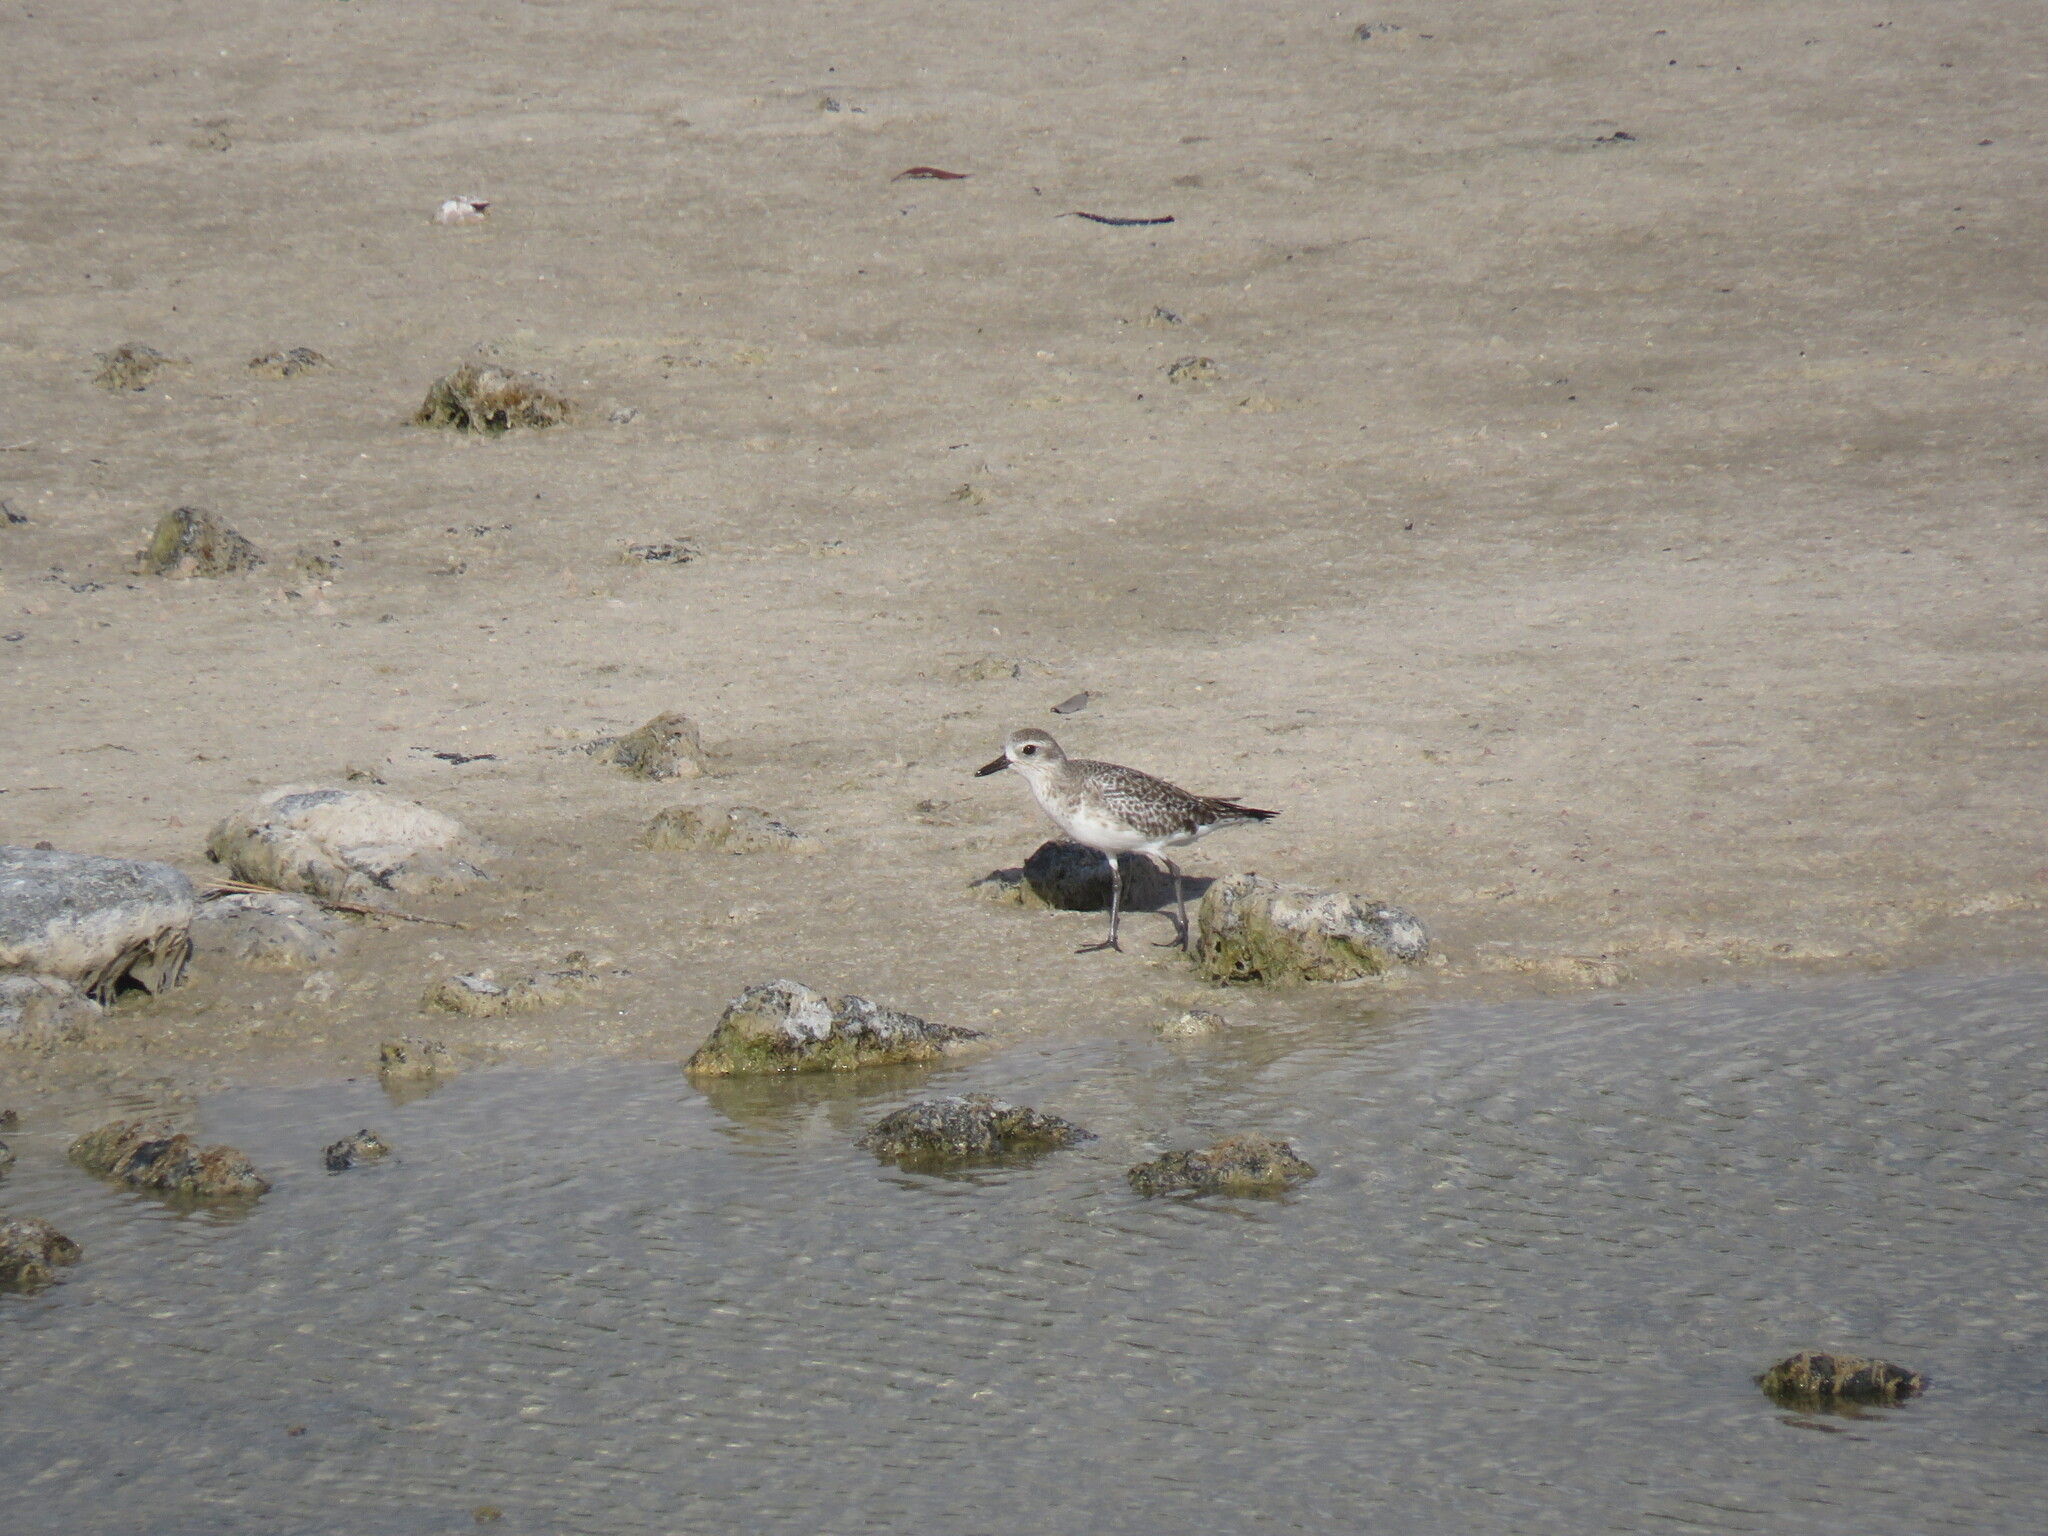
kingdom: Animalia
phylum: Chordata
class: Aves
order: Charadriiformes
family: Charadriidae
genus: Pluvialis
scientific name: Pluvialis squatarola
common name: Grey plover
